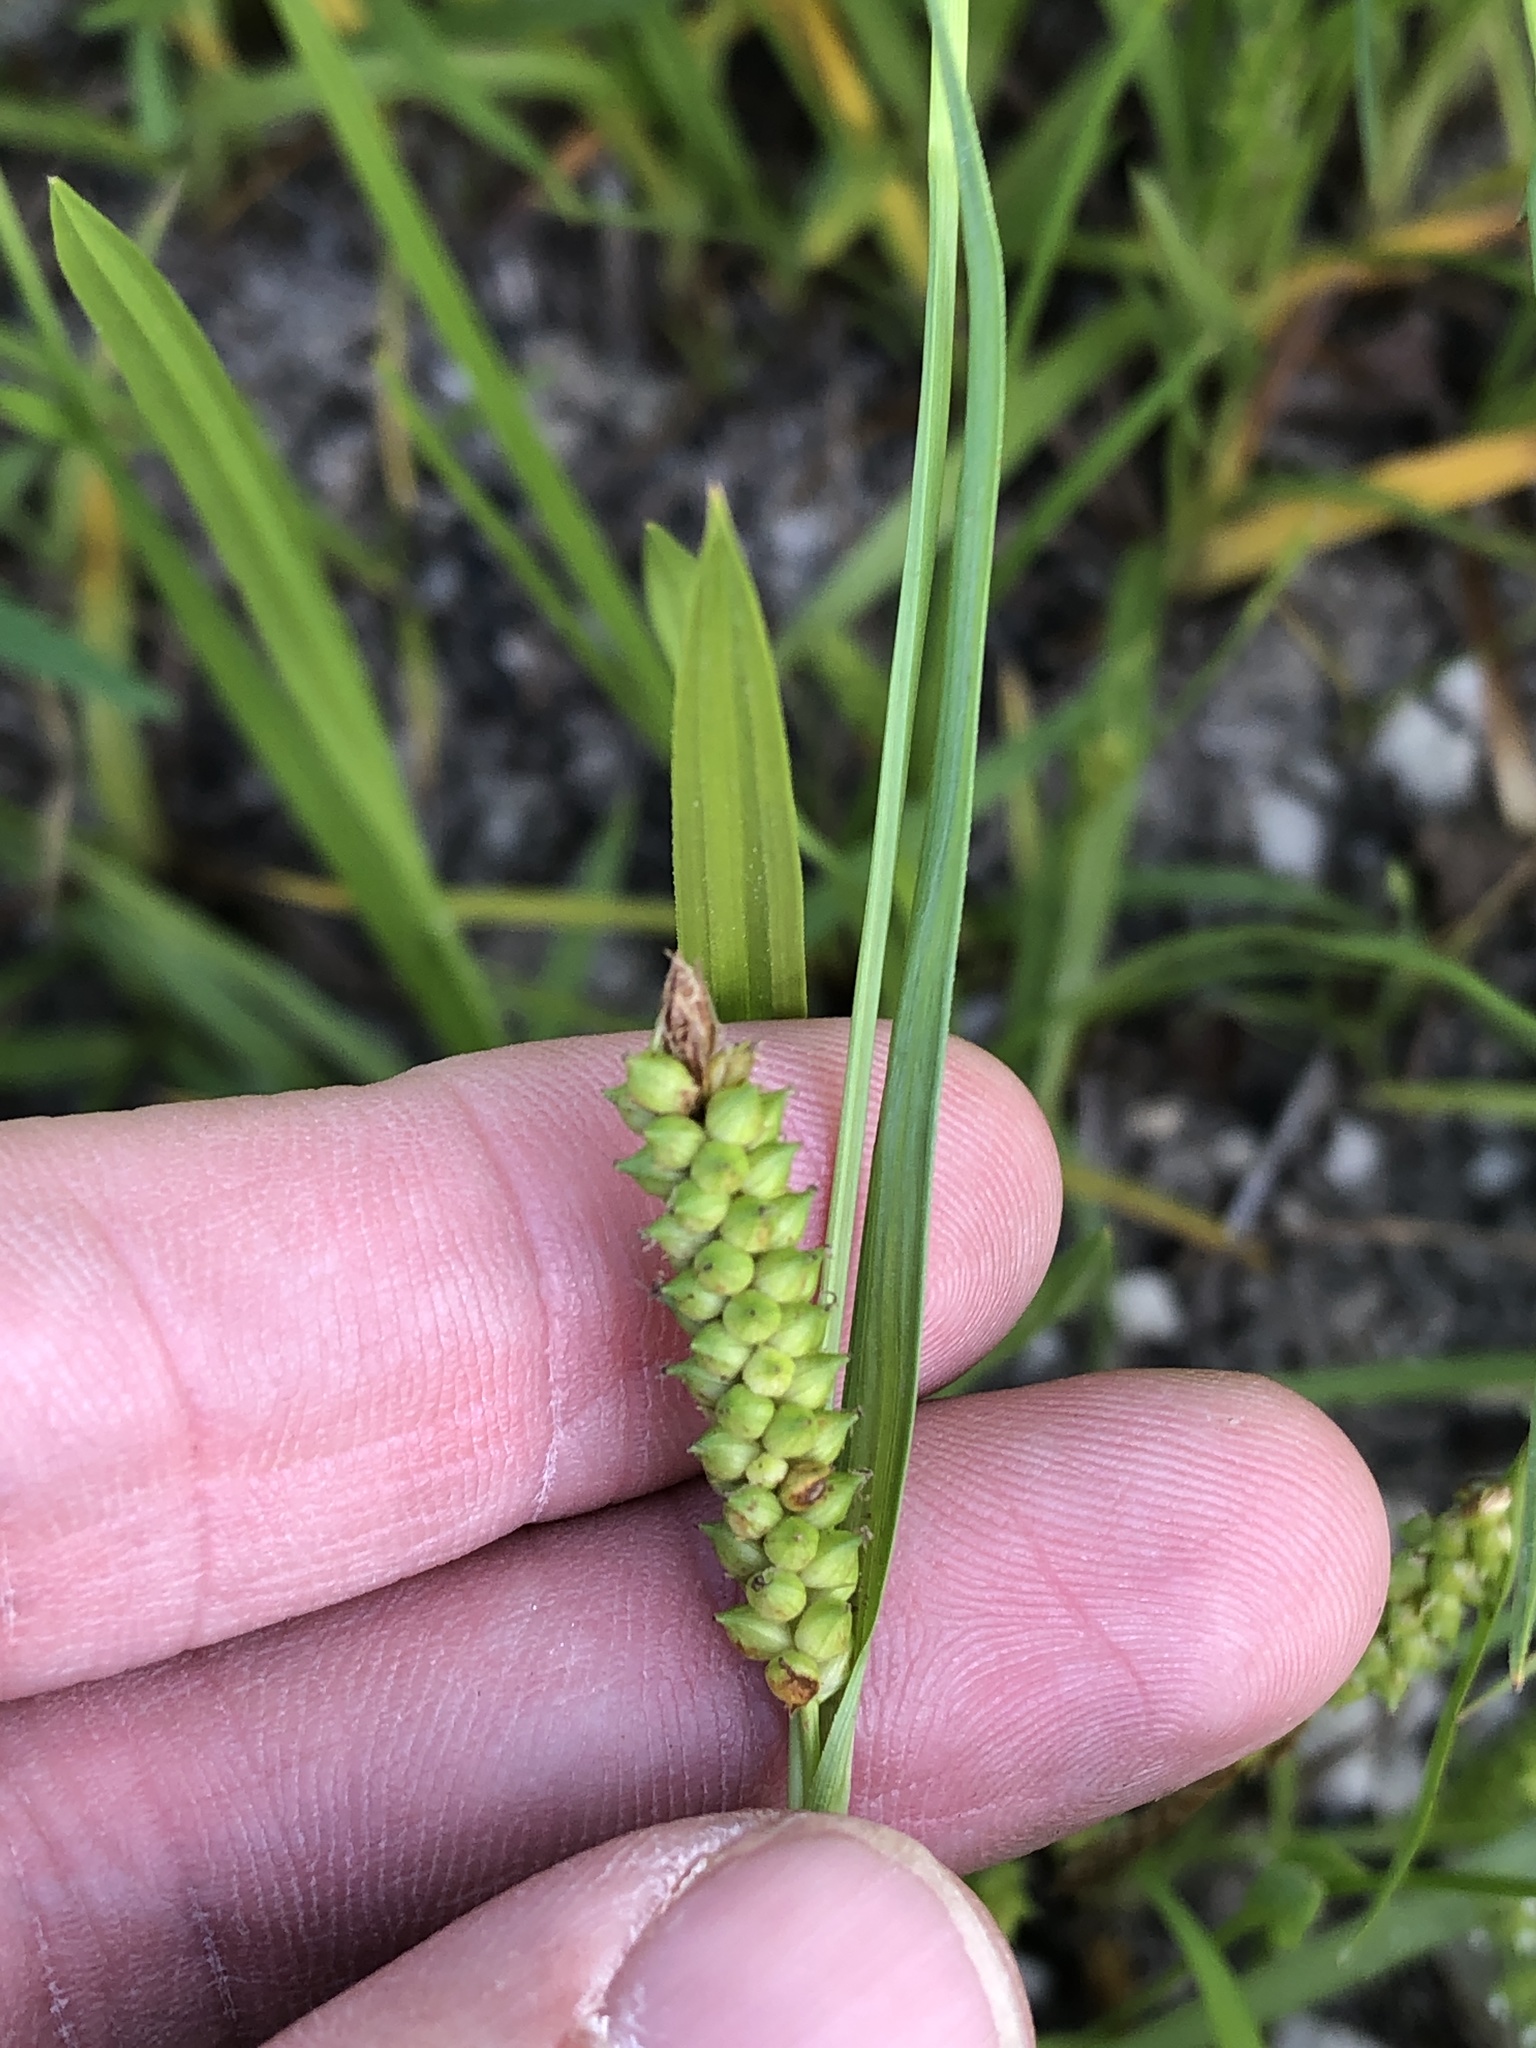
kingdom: Plantae
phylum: Tracheophyta
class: Liliopsida
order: Poales
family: Cyperaceae
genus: Carex
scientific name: Carex microdonta
